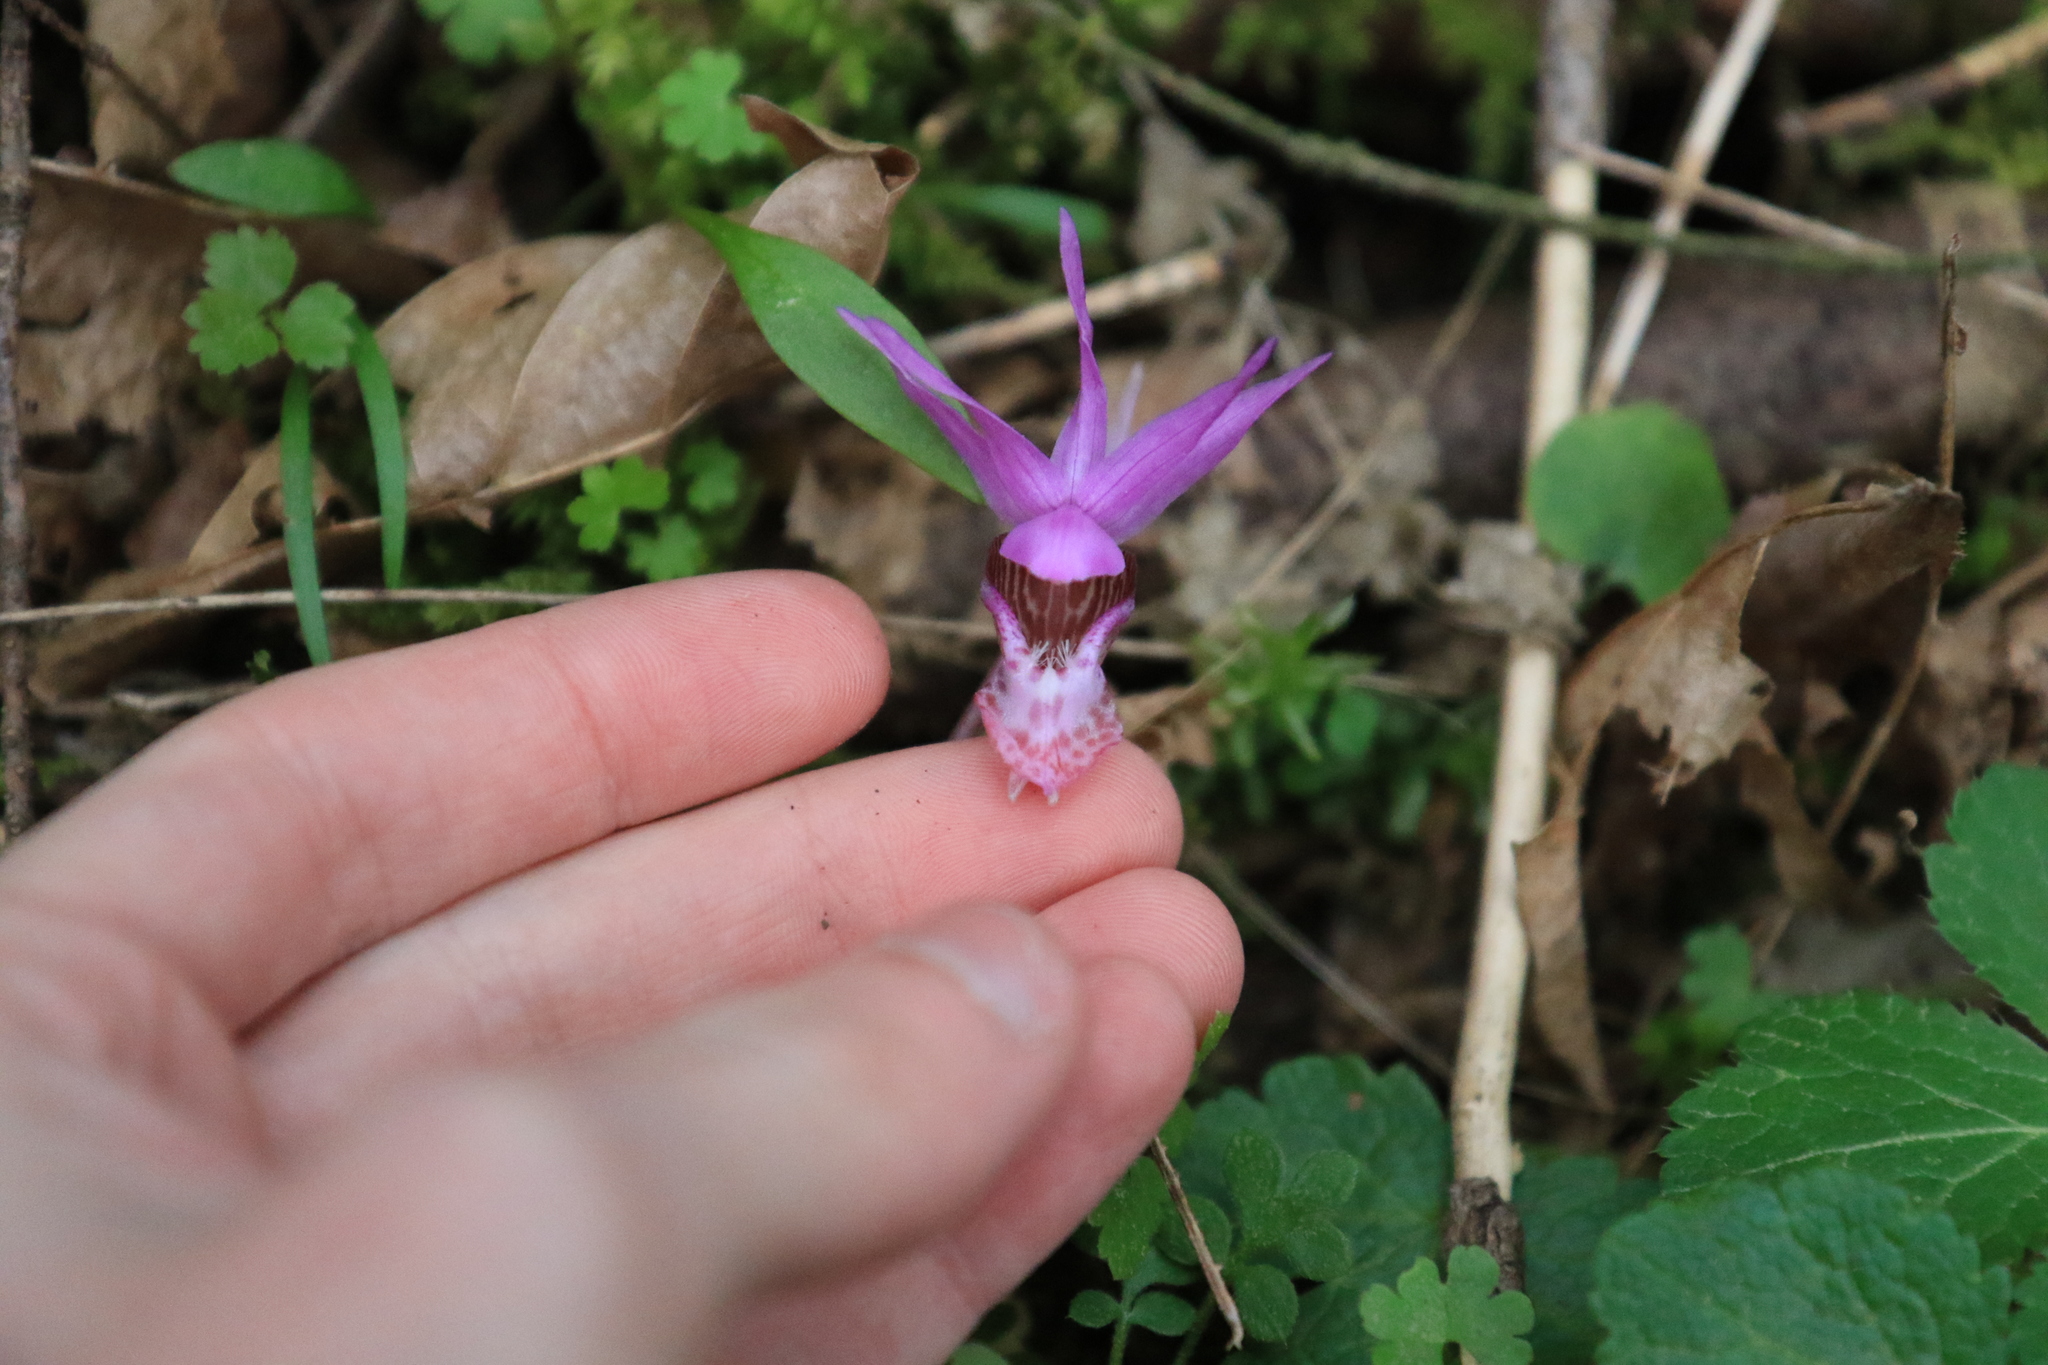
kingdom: Plantae
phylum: Tracheophyta
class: Liliopsida
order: Asparagales
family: Orchidaceae
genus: Calypso
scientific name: Calypso bulbosa
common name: Calypso
